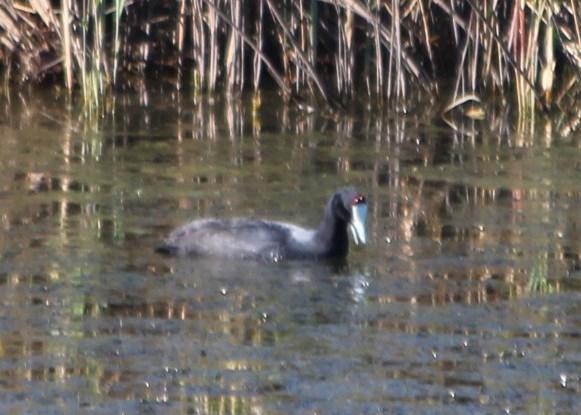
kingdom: Animalia
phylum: Chordata
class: Aves
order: Gruiformes
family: Rallidae
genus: Fulica
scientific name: Fulica cristata
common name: Red-knobbed coot
